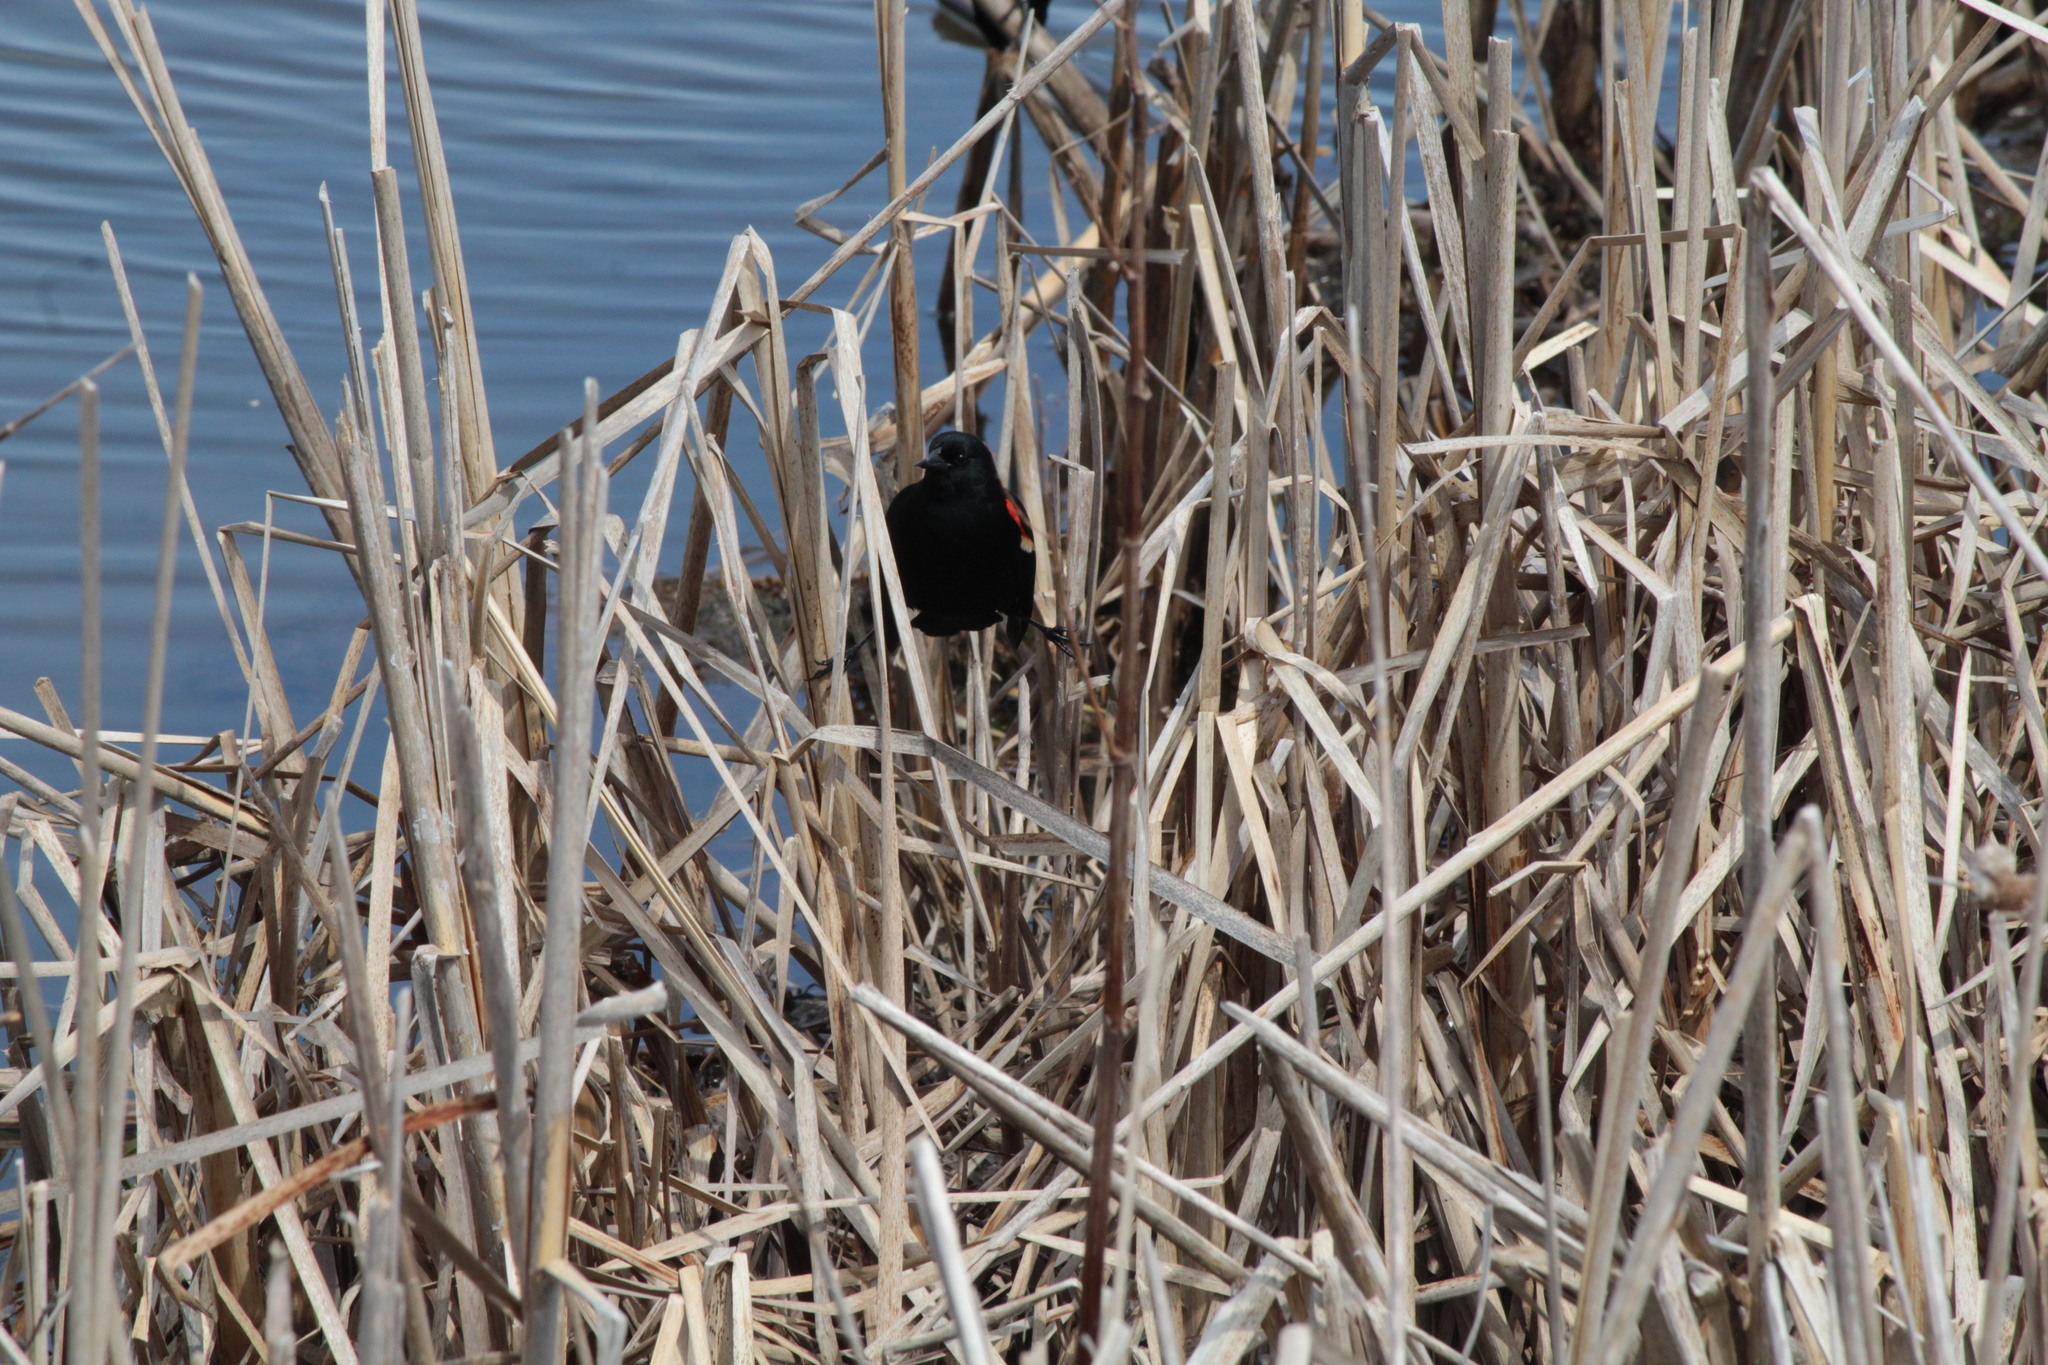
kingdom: Animalia
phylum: Chordata
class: Aves
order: Passeriformes
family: Icteridae
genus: Agelaius
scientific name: Agelaius phoeniceus
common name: Red-winged blackbird
